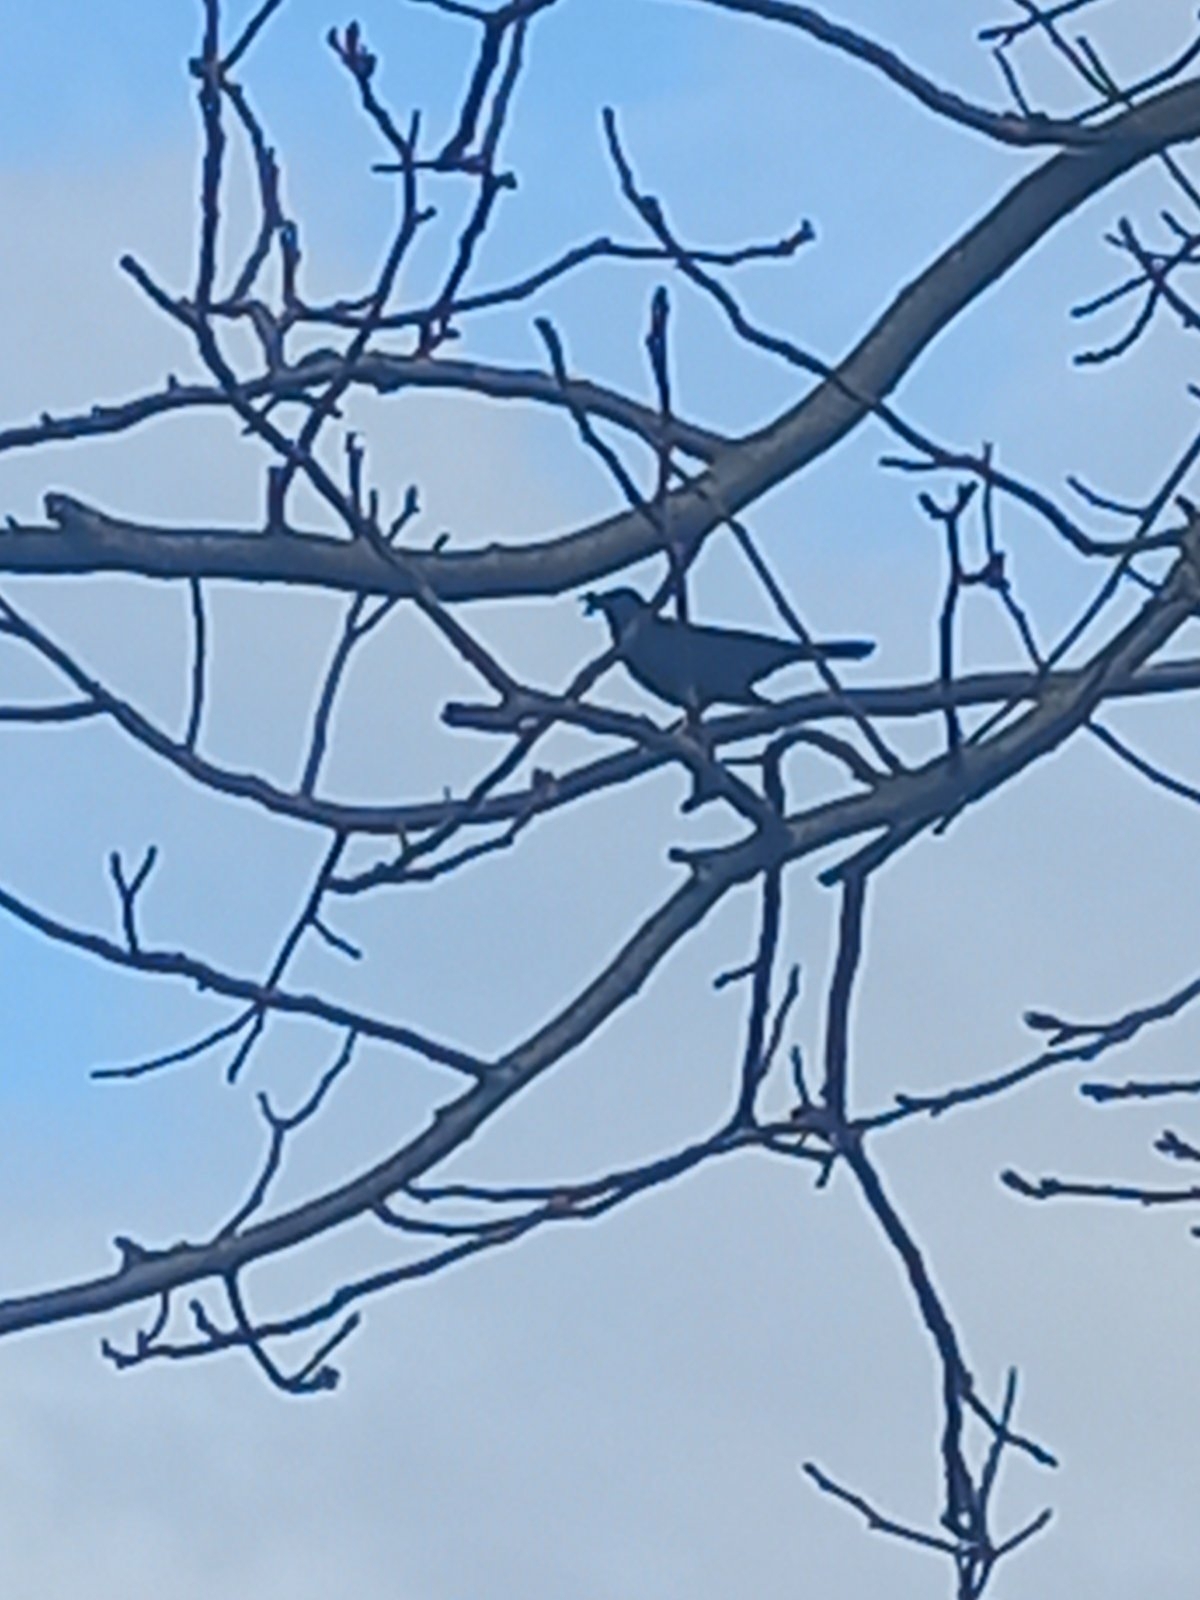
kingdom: Animalia
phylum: Chordata
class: Aves
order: Passeriformes
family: Turdidae
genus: Turdus
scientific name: Turdus merula
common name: Common blackbird
